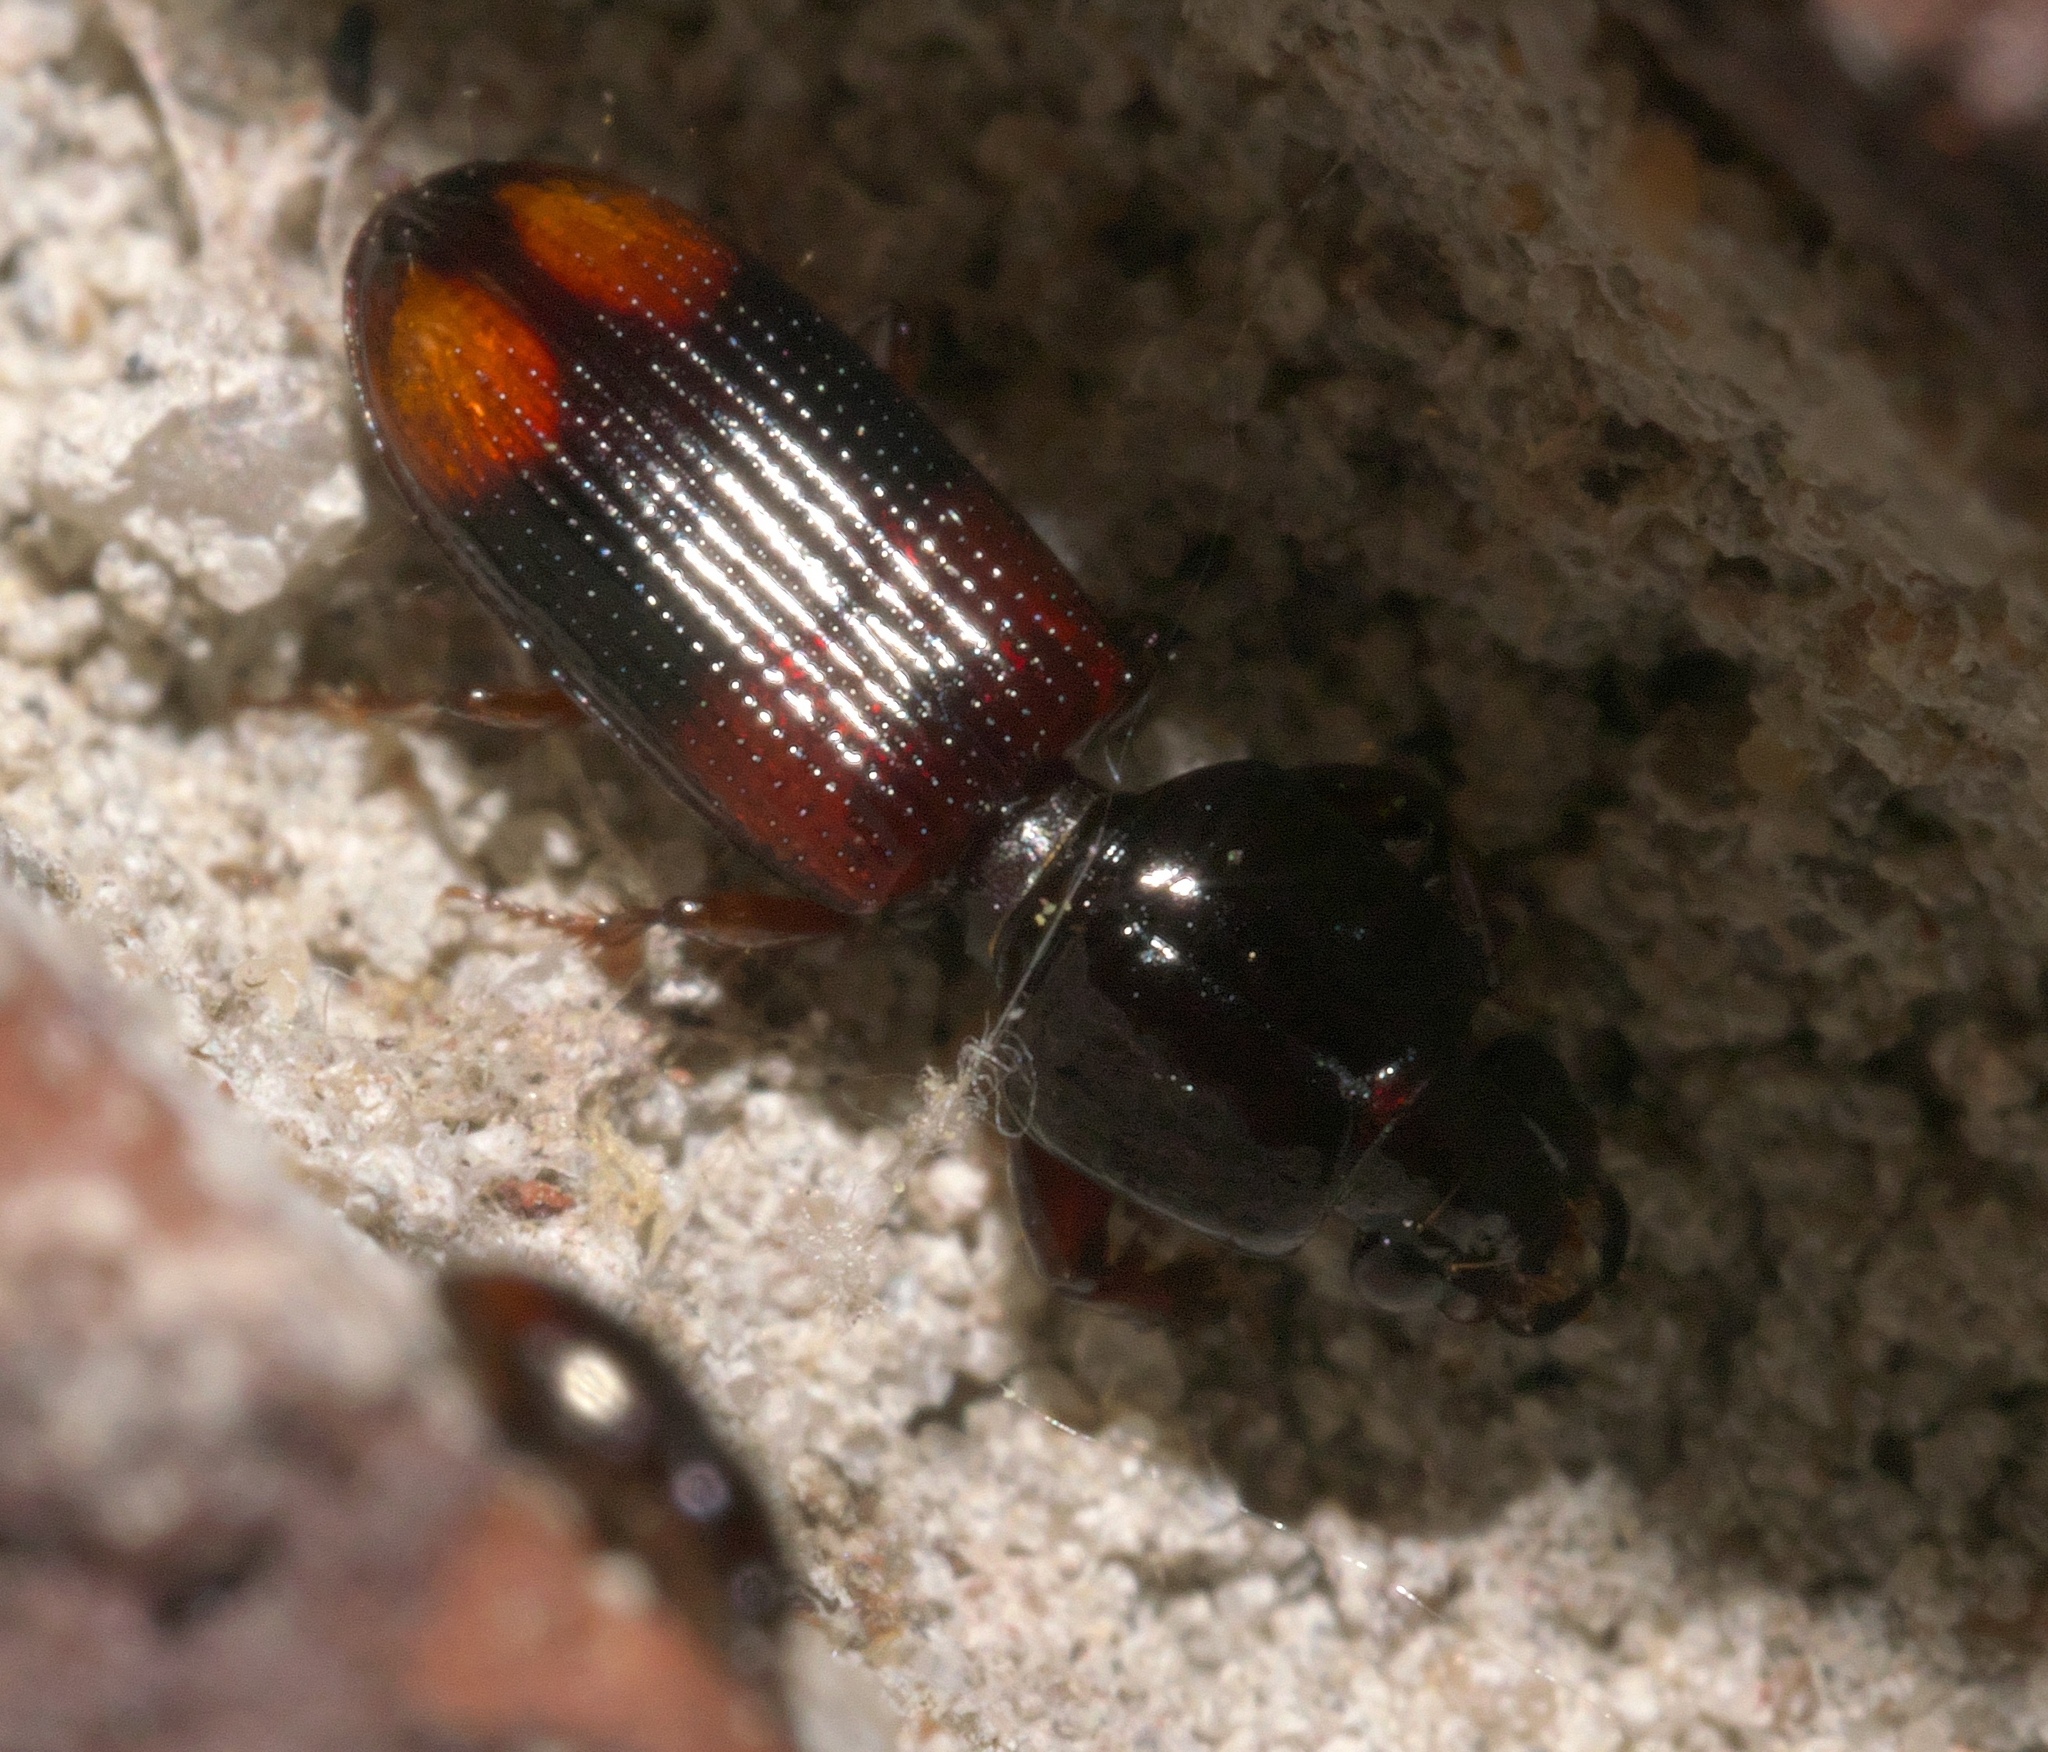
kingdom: Animalia
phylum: Arthropoda
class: Insecta
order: Coleoptera
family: Carabidae
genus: Clivina
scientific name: Clivina bipustulata
